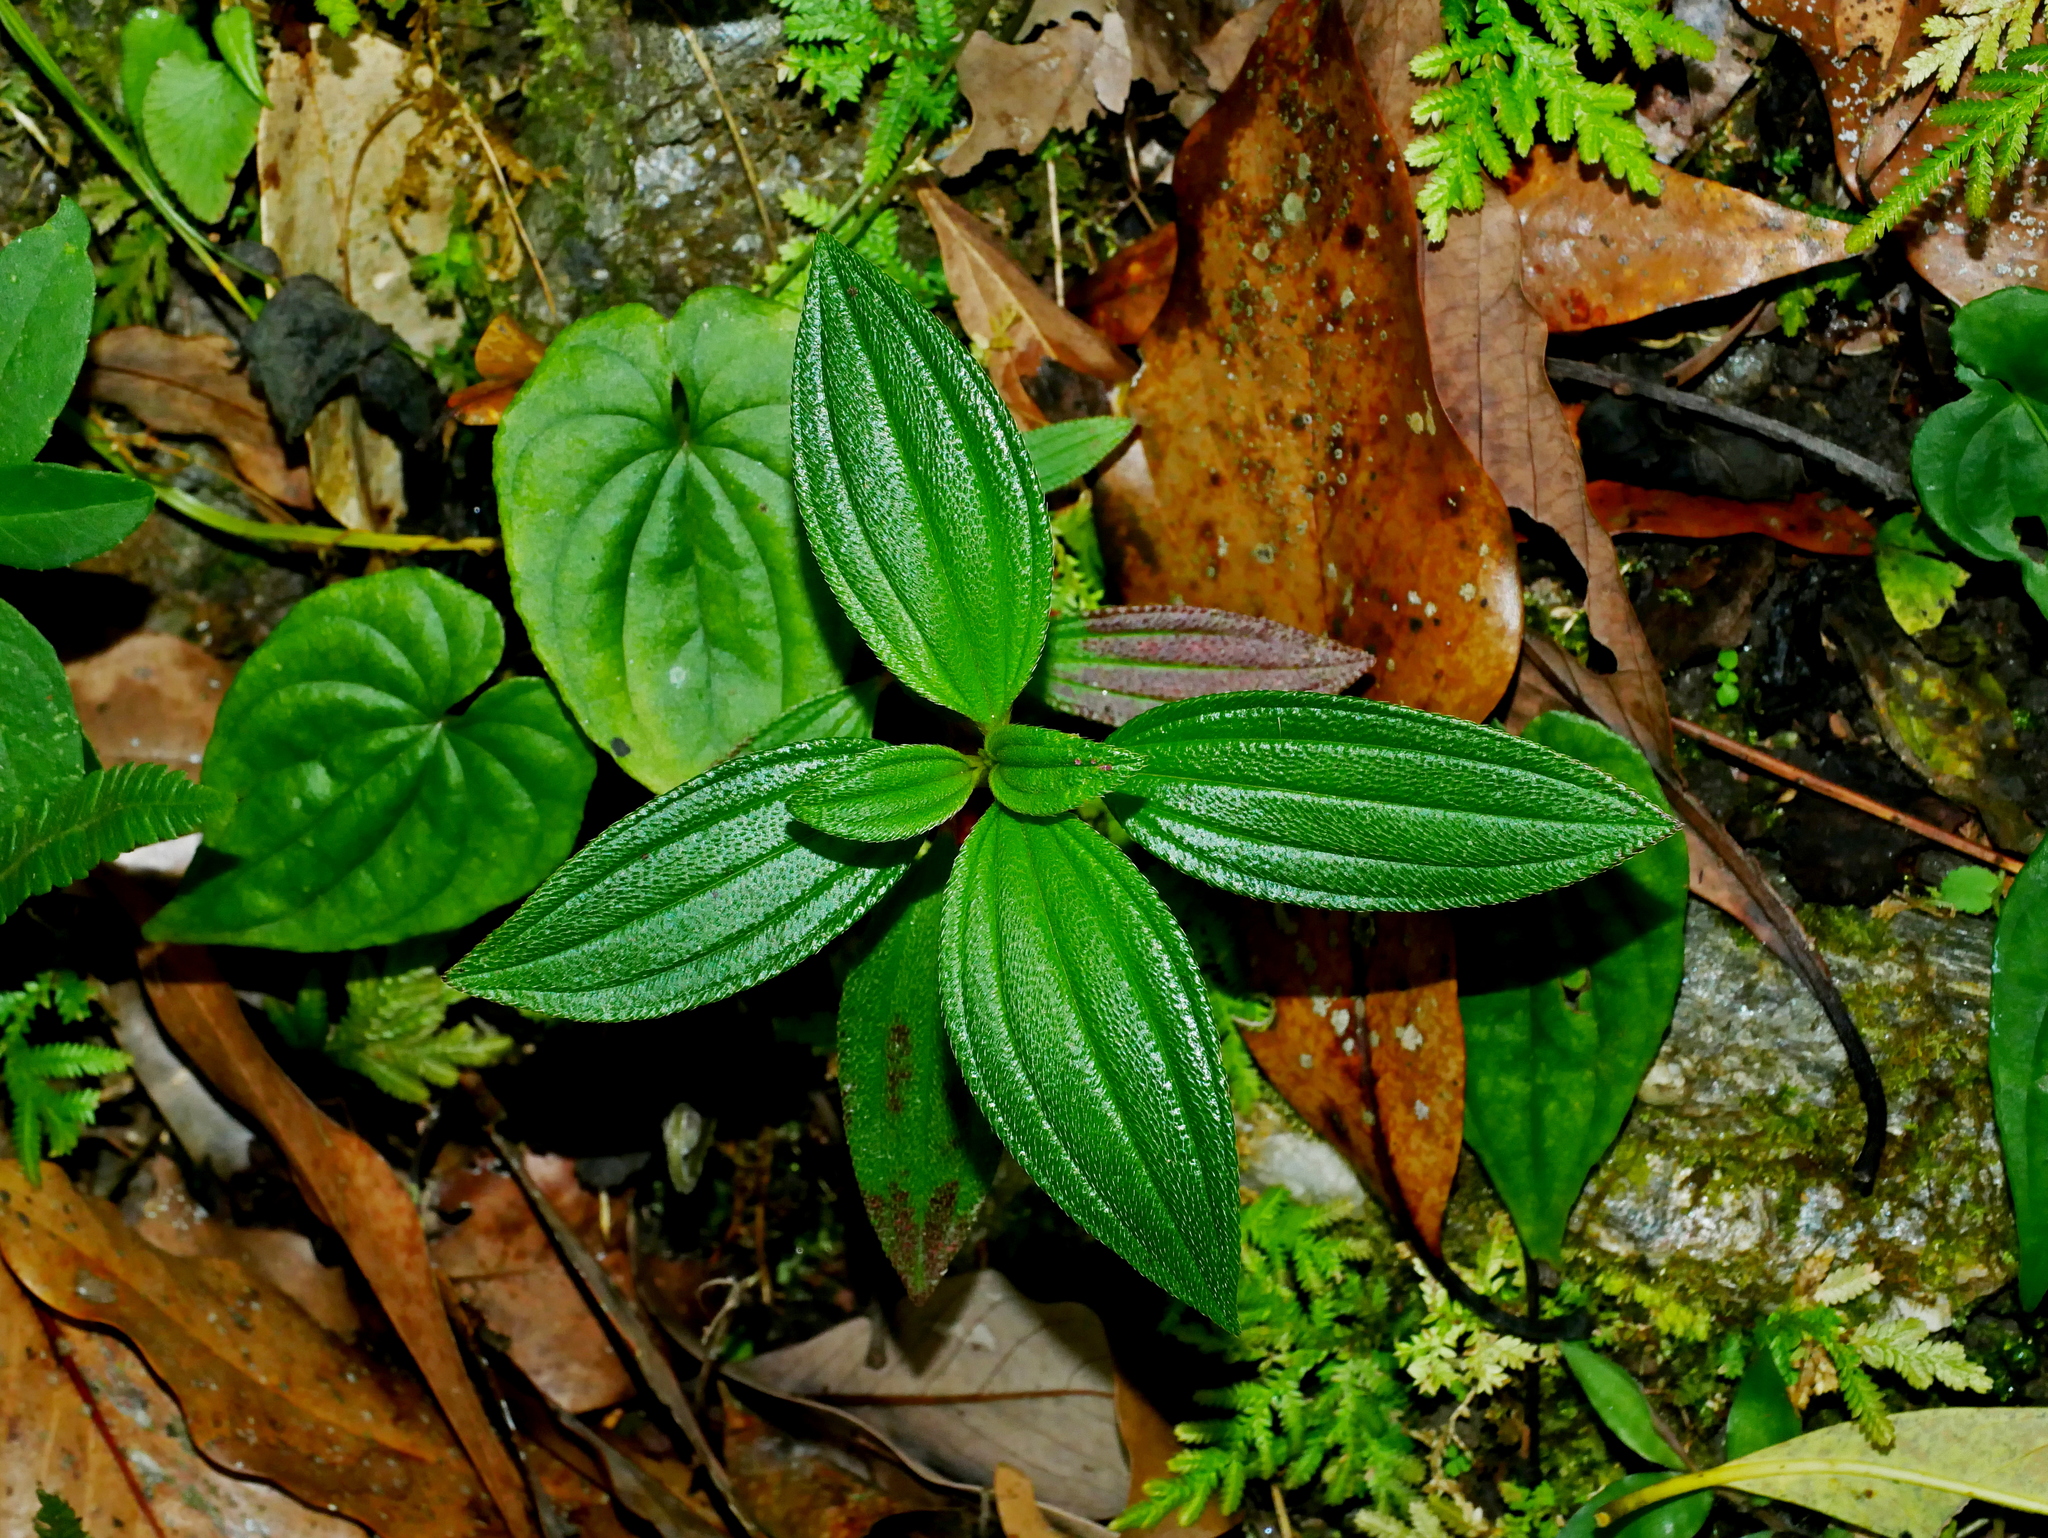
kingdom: Plantae
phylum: Tracheophyta
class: Magnoliopsida
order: Myrtales
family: Melastomataceae
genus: Melastoma
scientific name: Melastoma scaberrima
